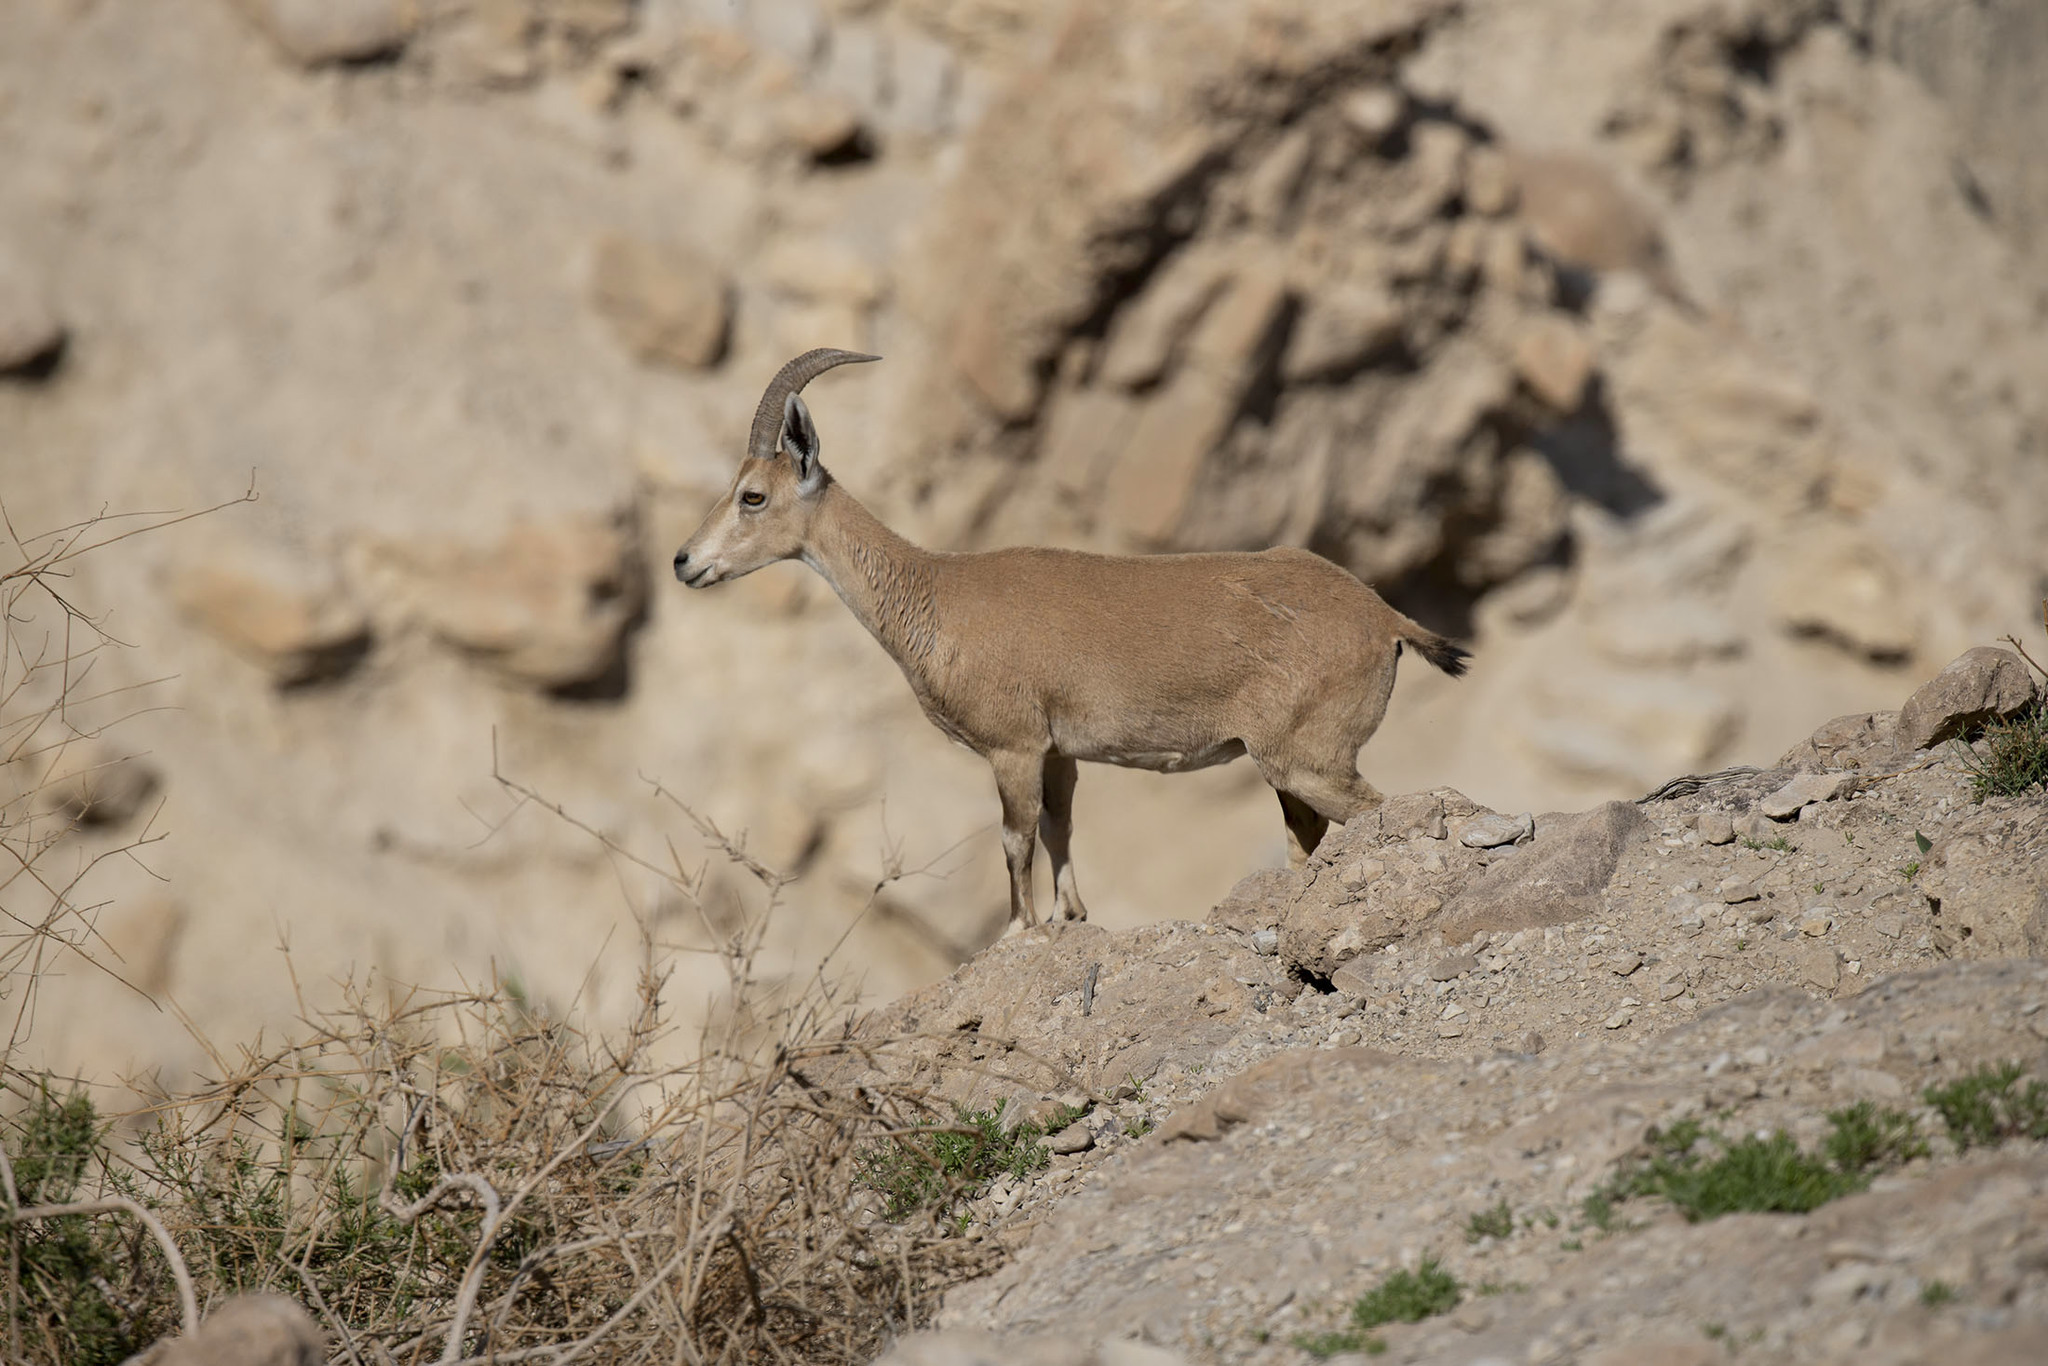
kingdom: Animalia
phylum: Chordata
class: Mammalia
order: Artiodactyla
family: Bovidae
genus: Capra
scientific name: Capra nubiana
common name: Nubian ibex
